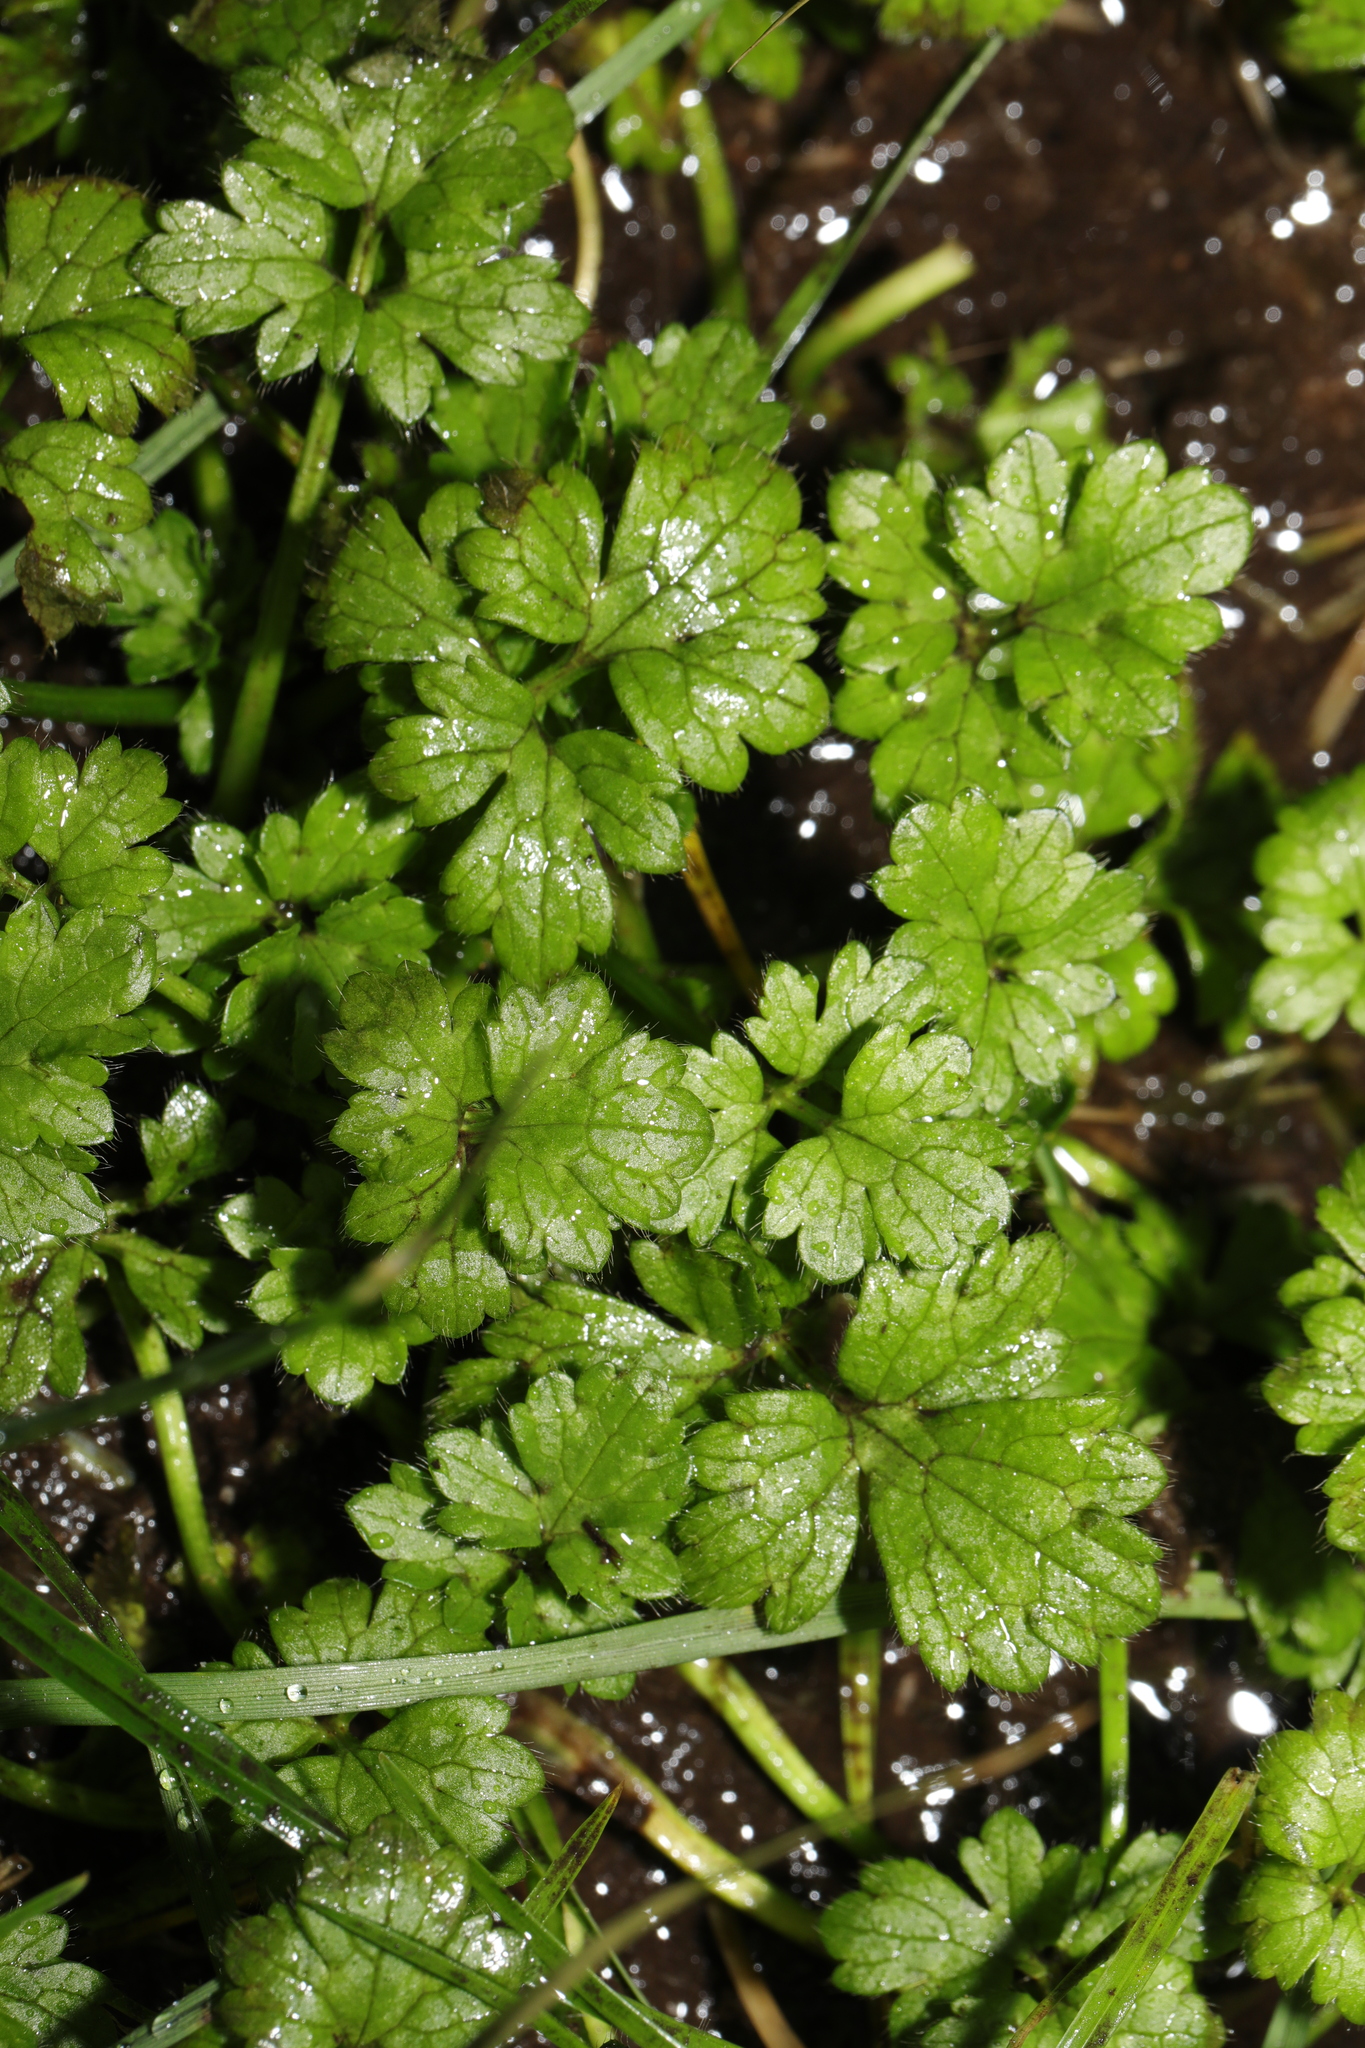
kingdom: Plantae
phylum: Tracheophyta
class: Magnoliopsida
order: Ranunculales
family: Ranunculaceae
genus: Ranunculus
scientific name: Ranunculus repens
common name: Creeping buttercup
